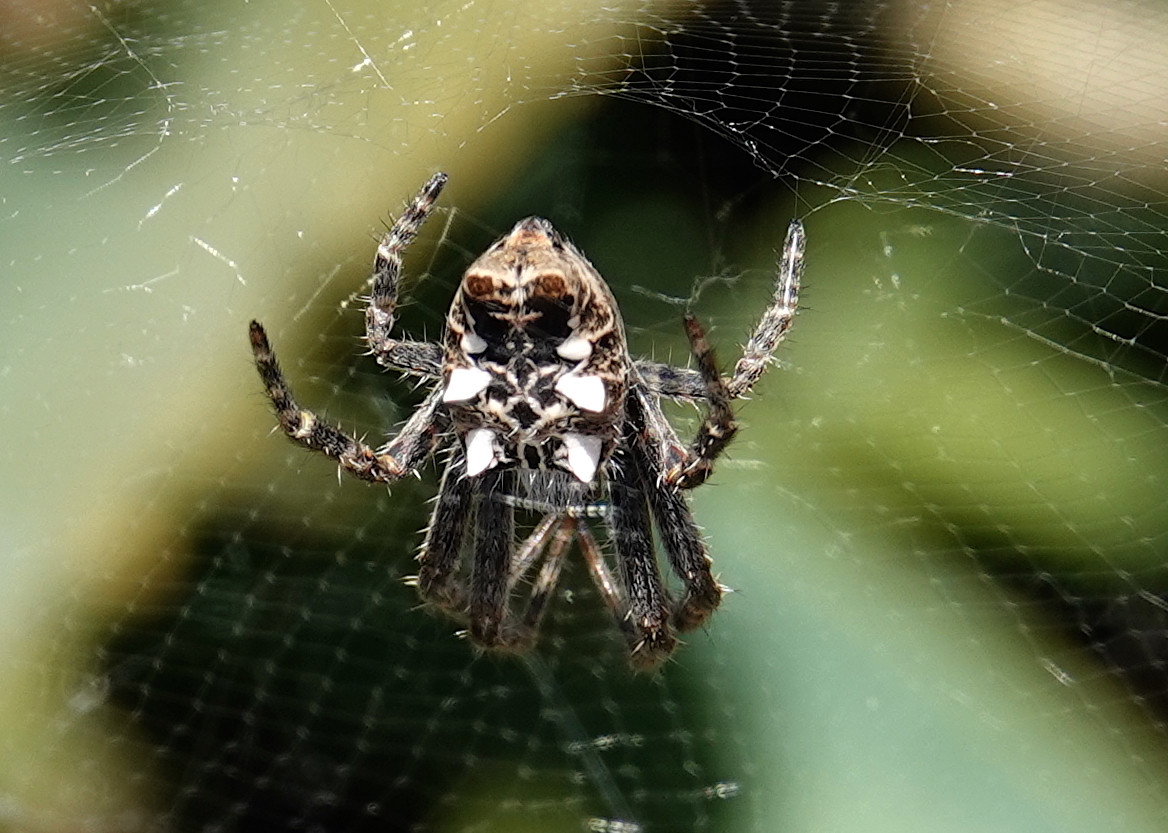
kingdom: Animalia
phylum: Arthropoda
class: Arachnida
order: Araneae
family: Araneidae
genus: Cyrtophora
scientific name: Cyrtophora citricola
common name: Orb weavers
